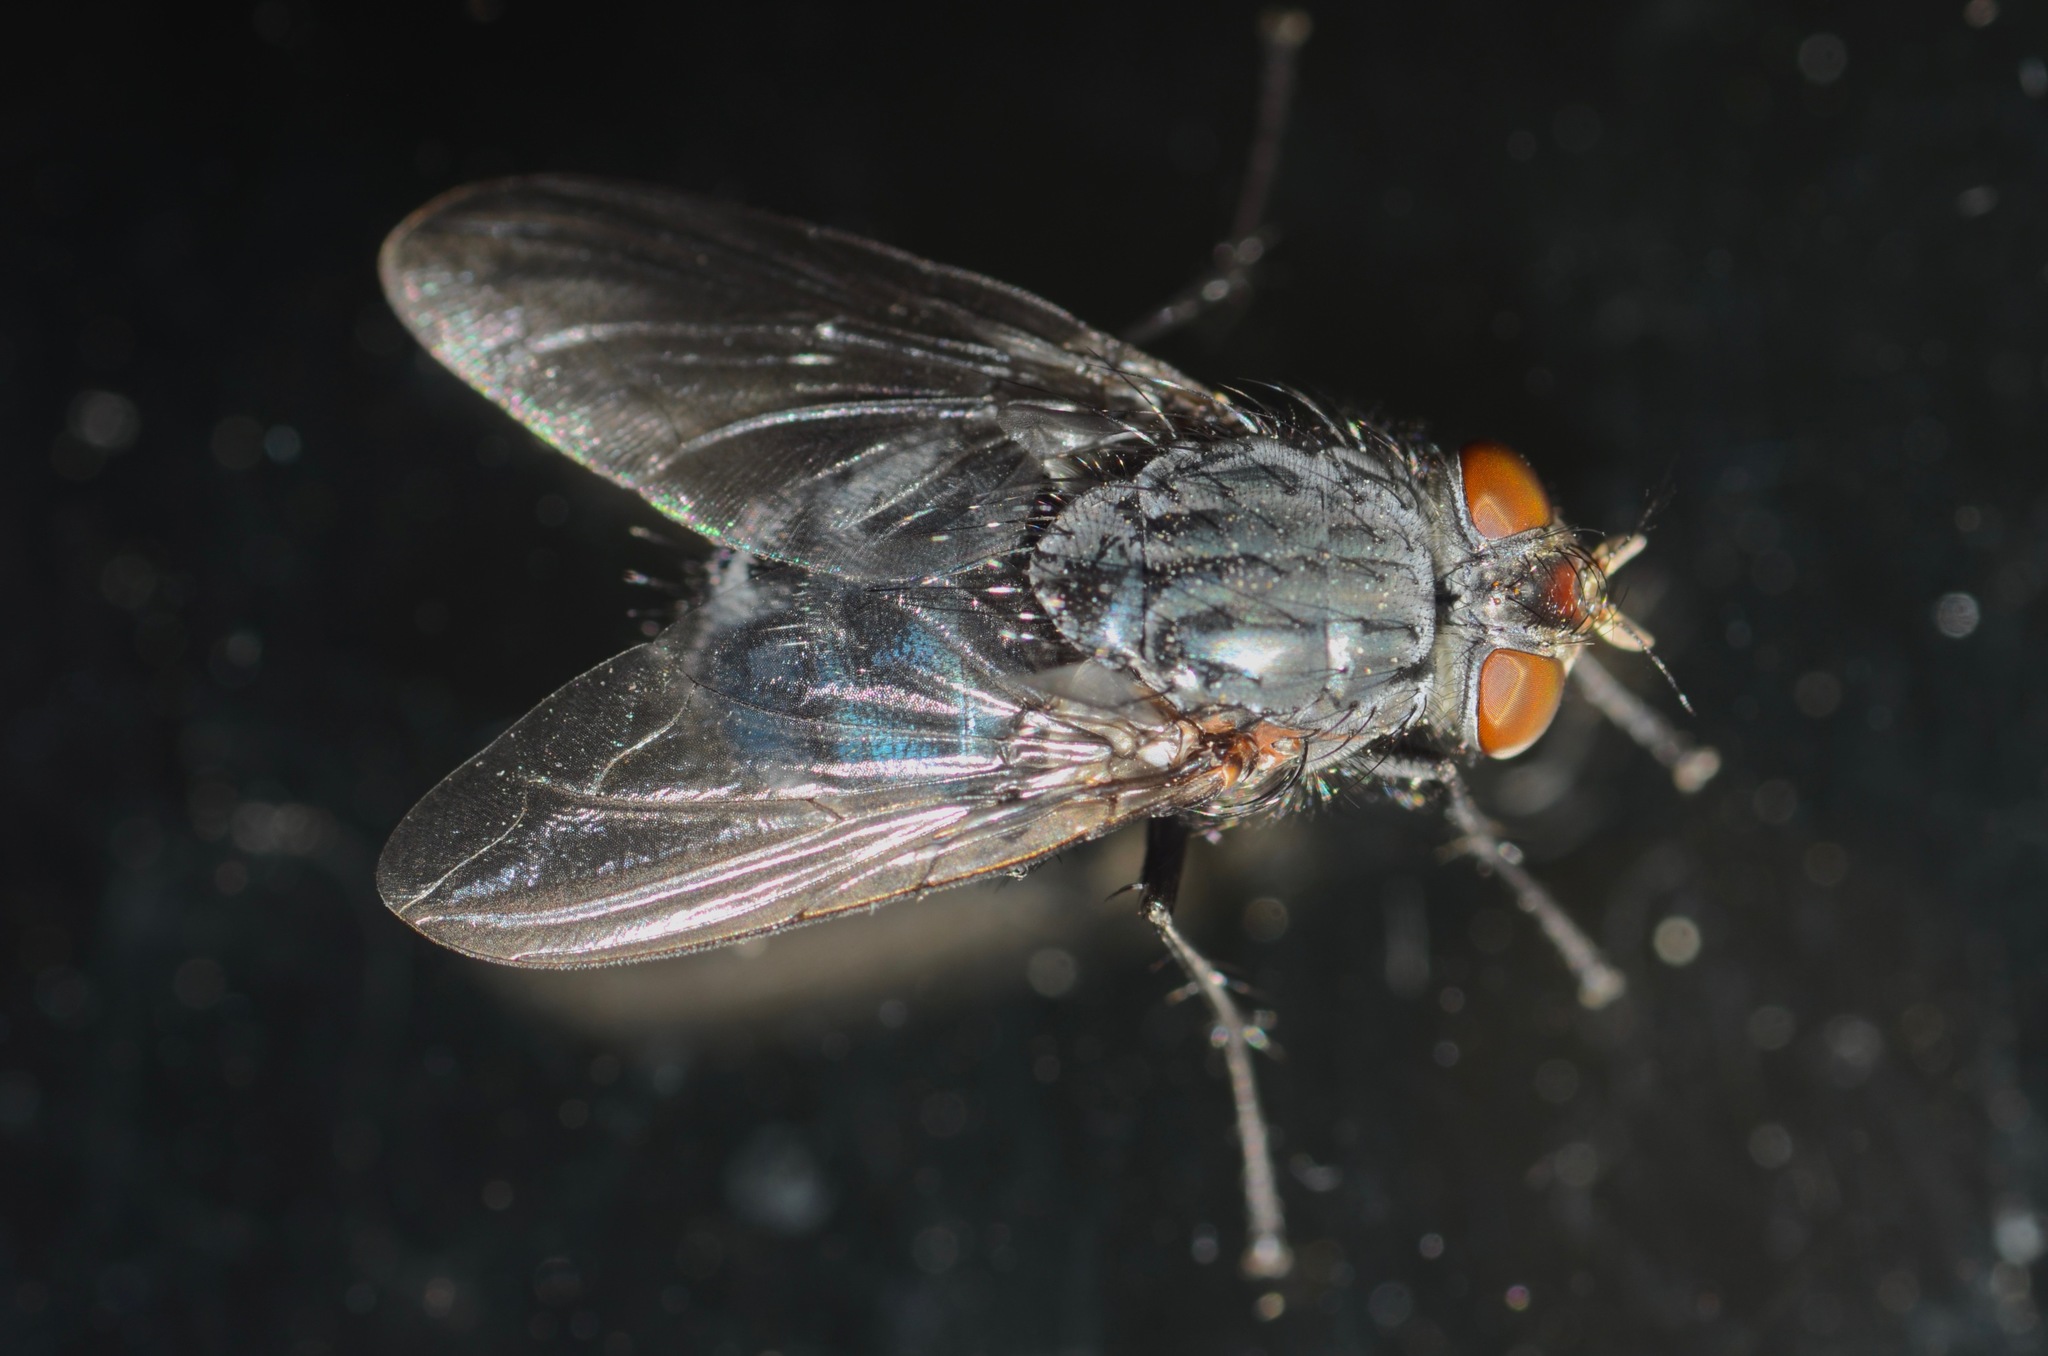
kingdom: Animalia
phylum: Arthropoda
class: Insecta
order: Diptera
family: Calliphoridae
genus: Calliphora
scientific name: Calliphora vicina
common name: Common blow flie
